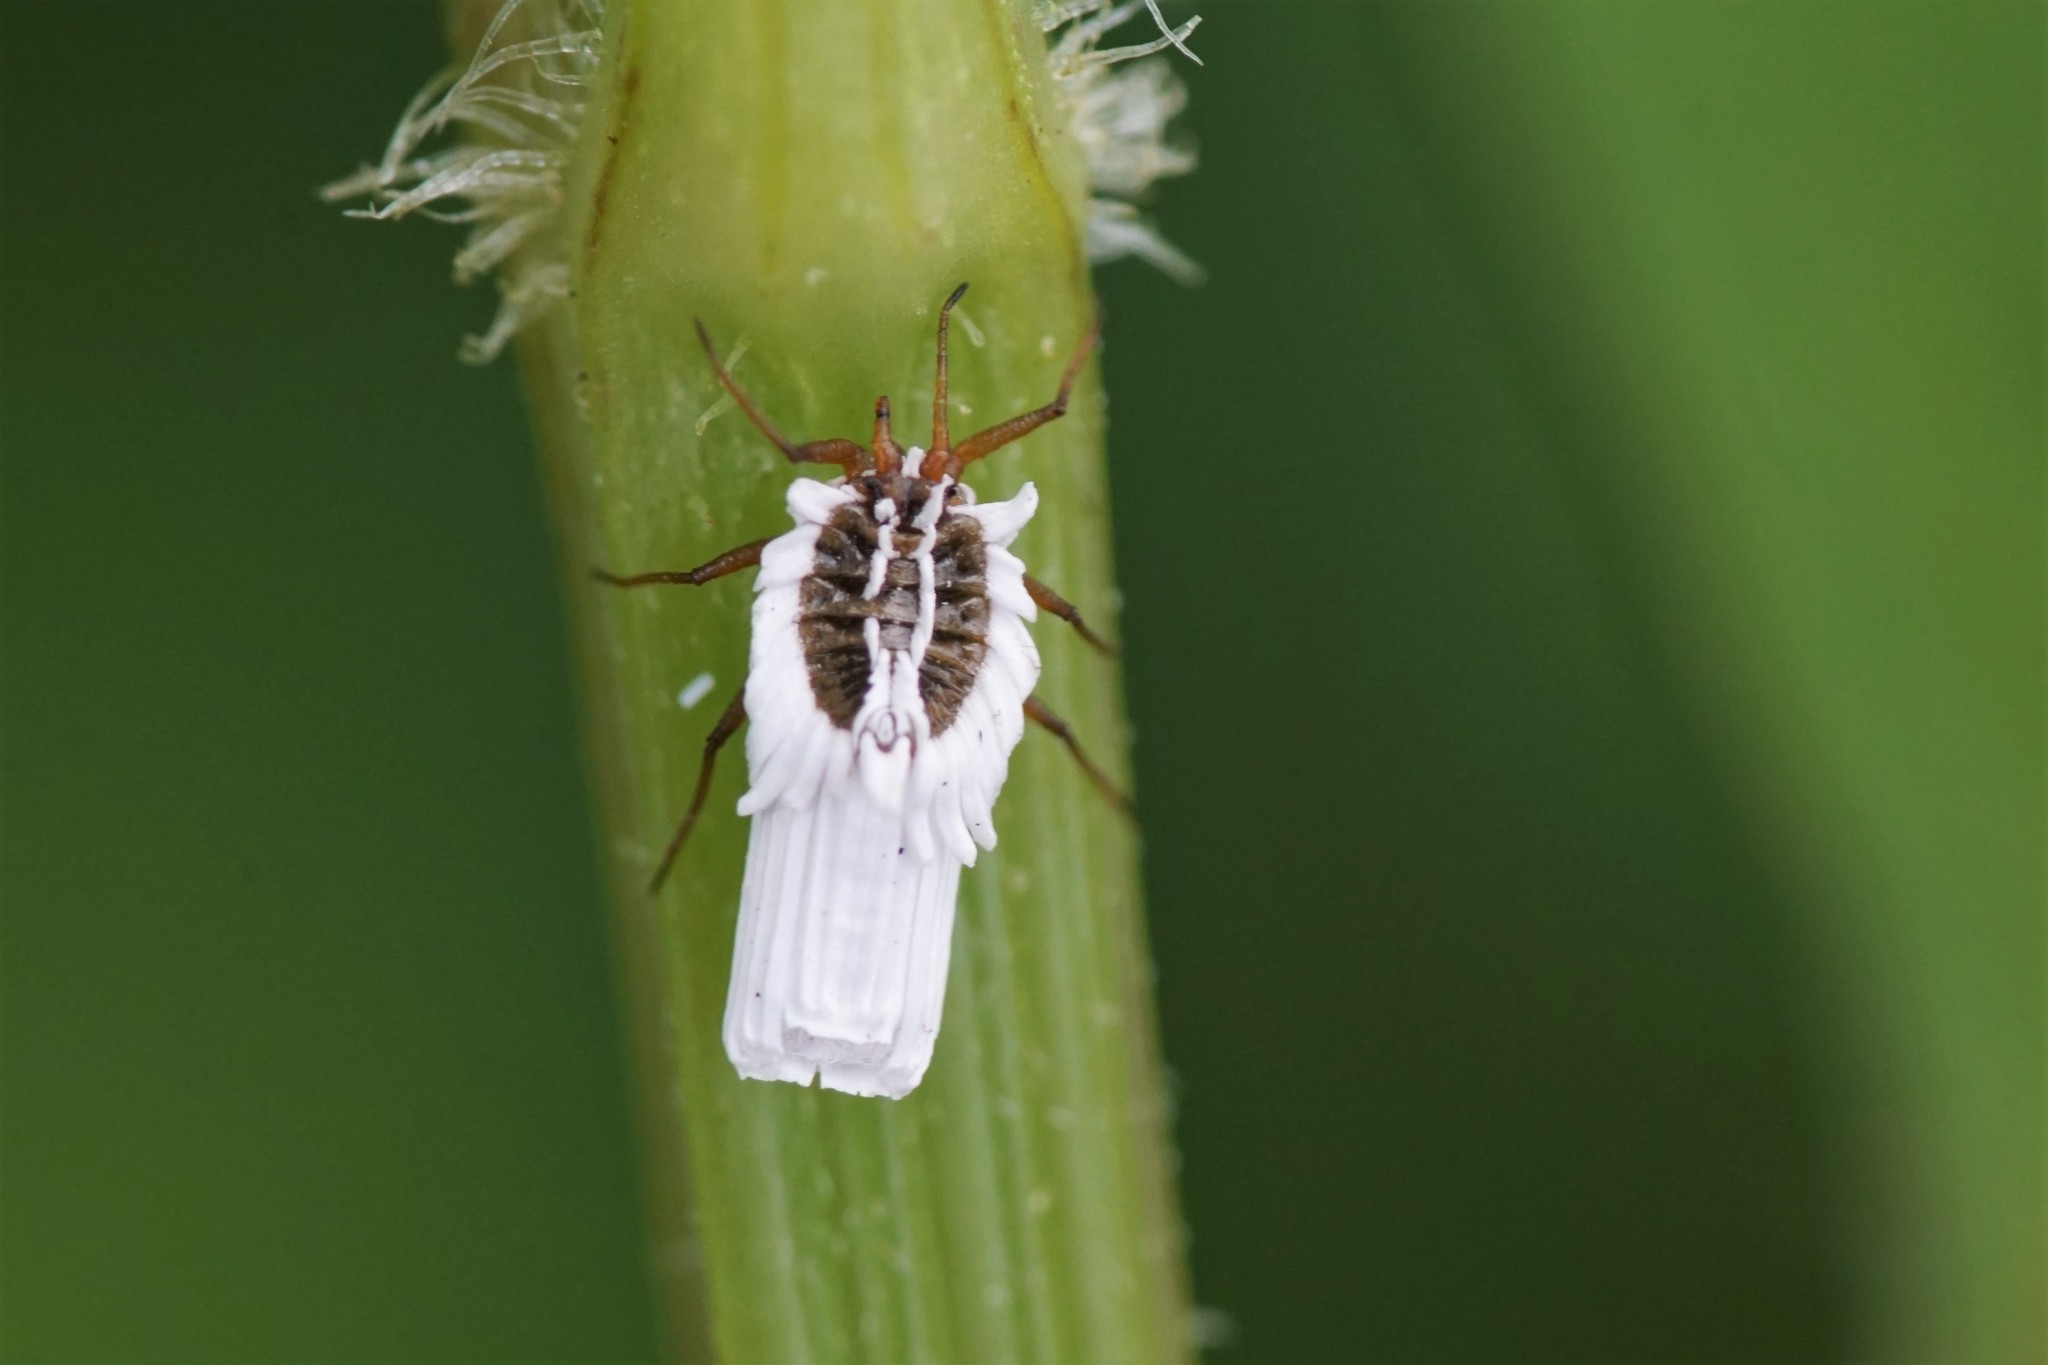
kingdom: Animalia
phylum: Arthropoda
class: Insecta
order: Hemiptera
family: Ortheziidae
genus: Insignorthezia
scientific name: Insignorthezia insignis
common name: Greenhouse orthezia
